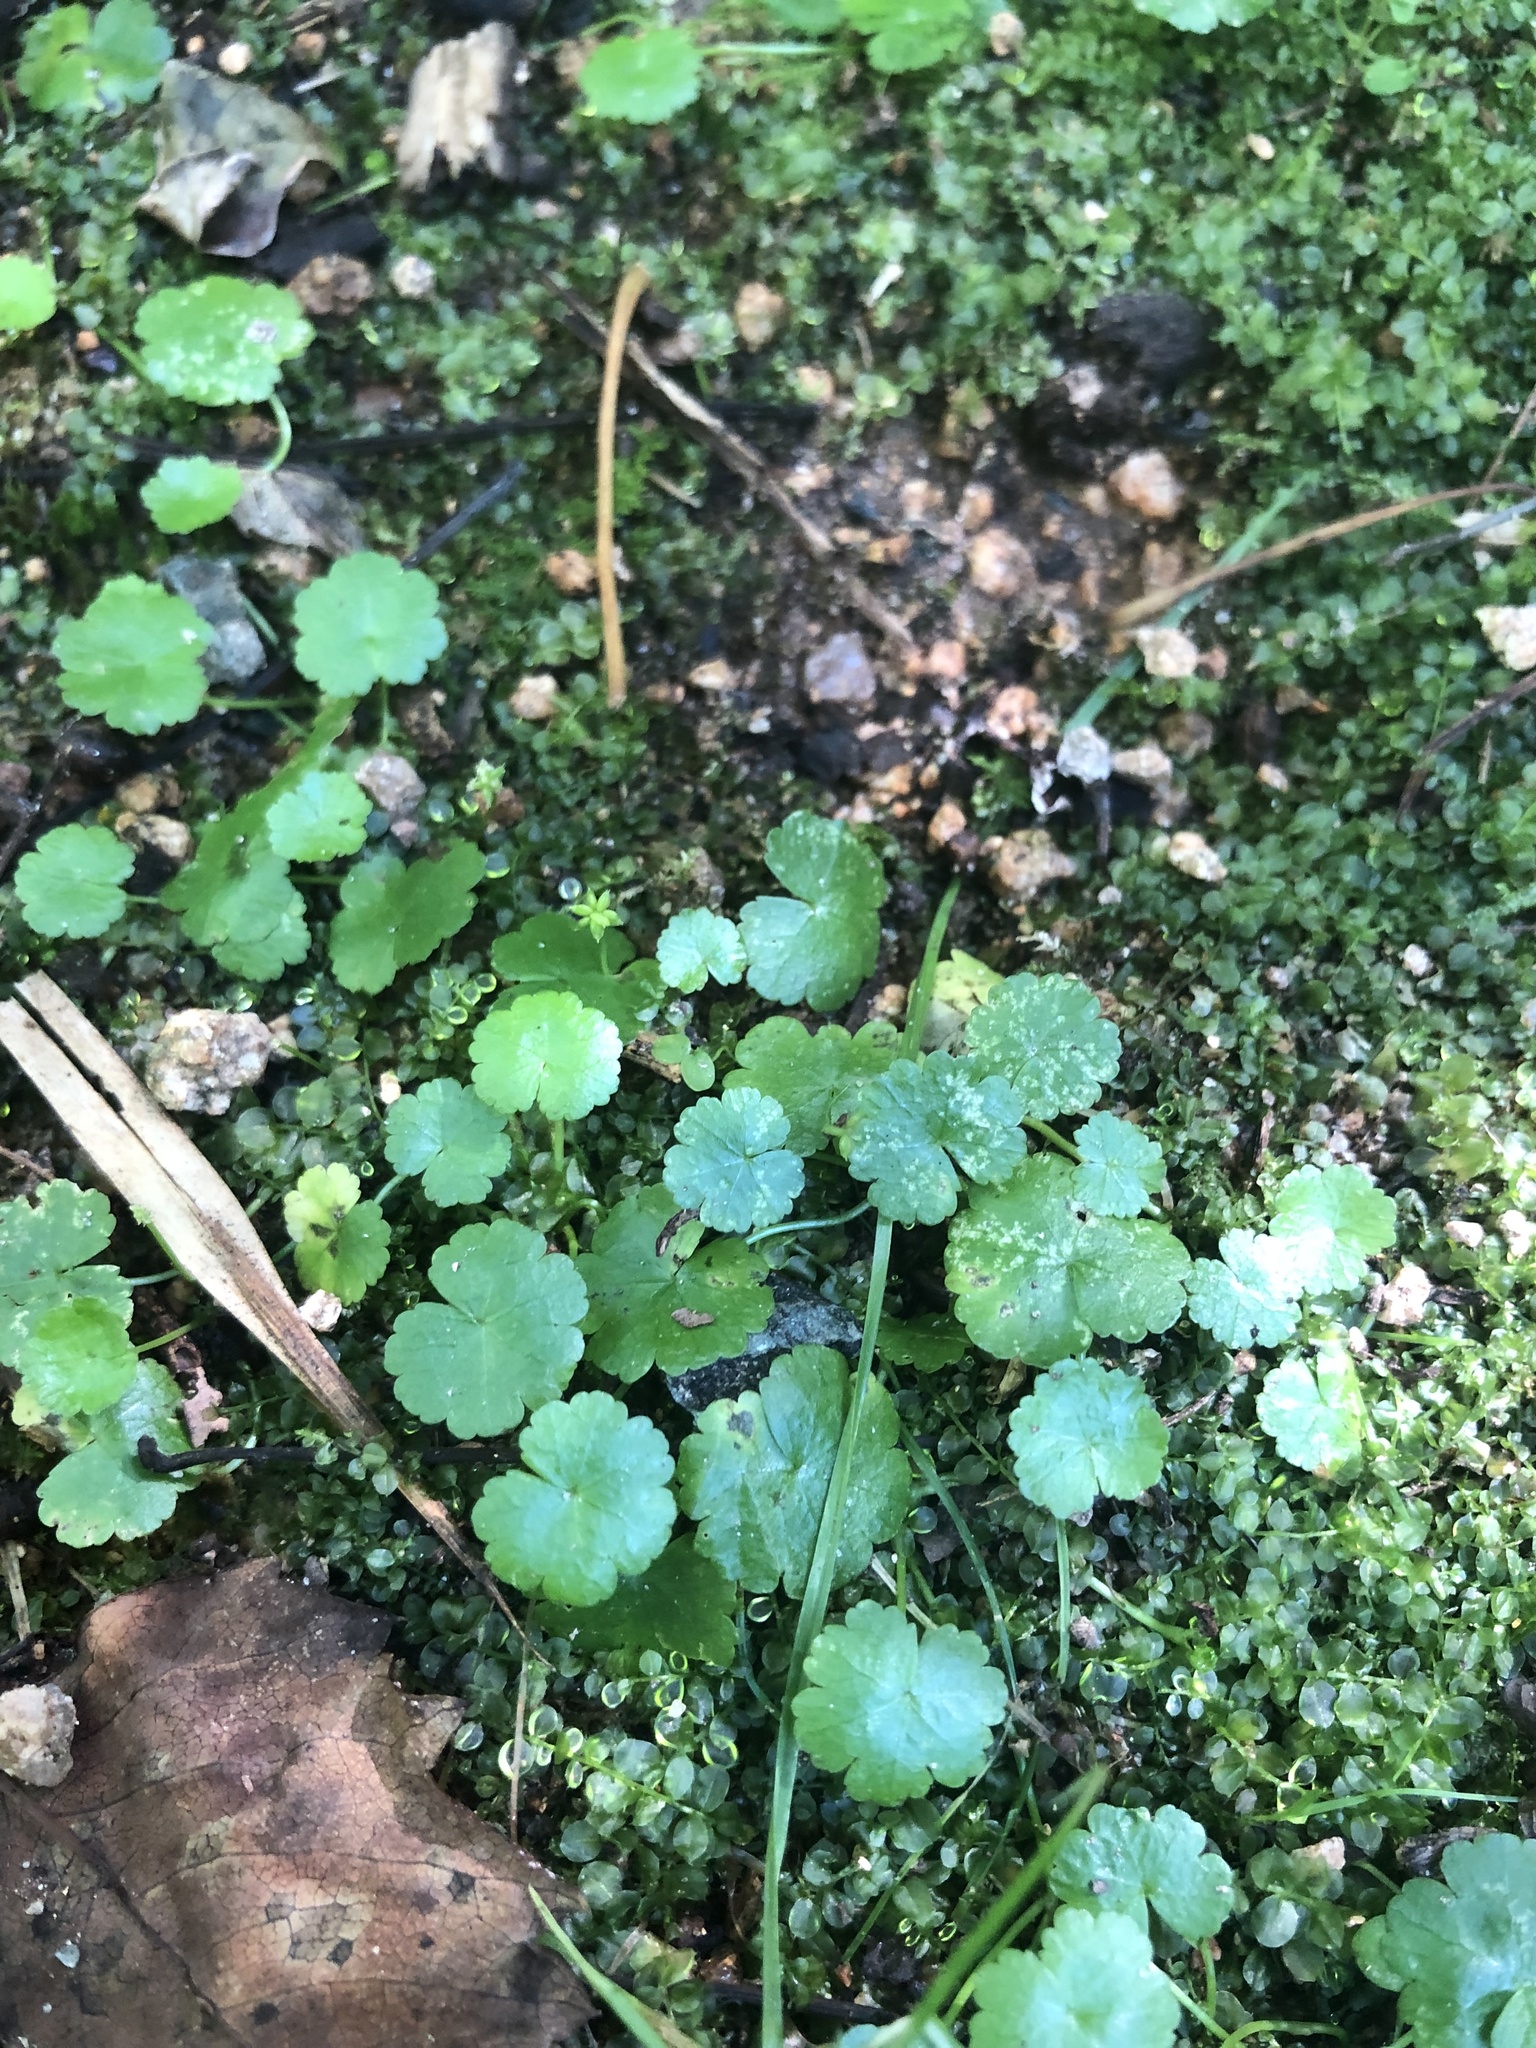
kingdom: Plantae
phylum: Tracheophyta
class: Magnoliopsida
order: Apiales
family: Araliaceae
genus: Hydrocotyle
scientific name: Hydrocotyle sibthorpioides
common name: Lawn marshpennywort
